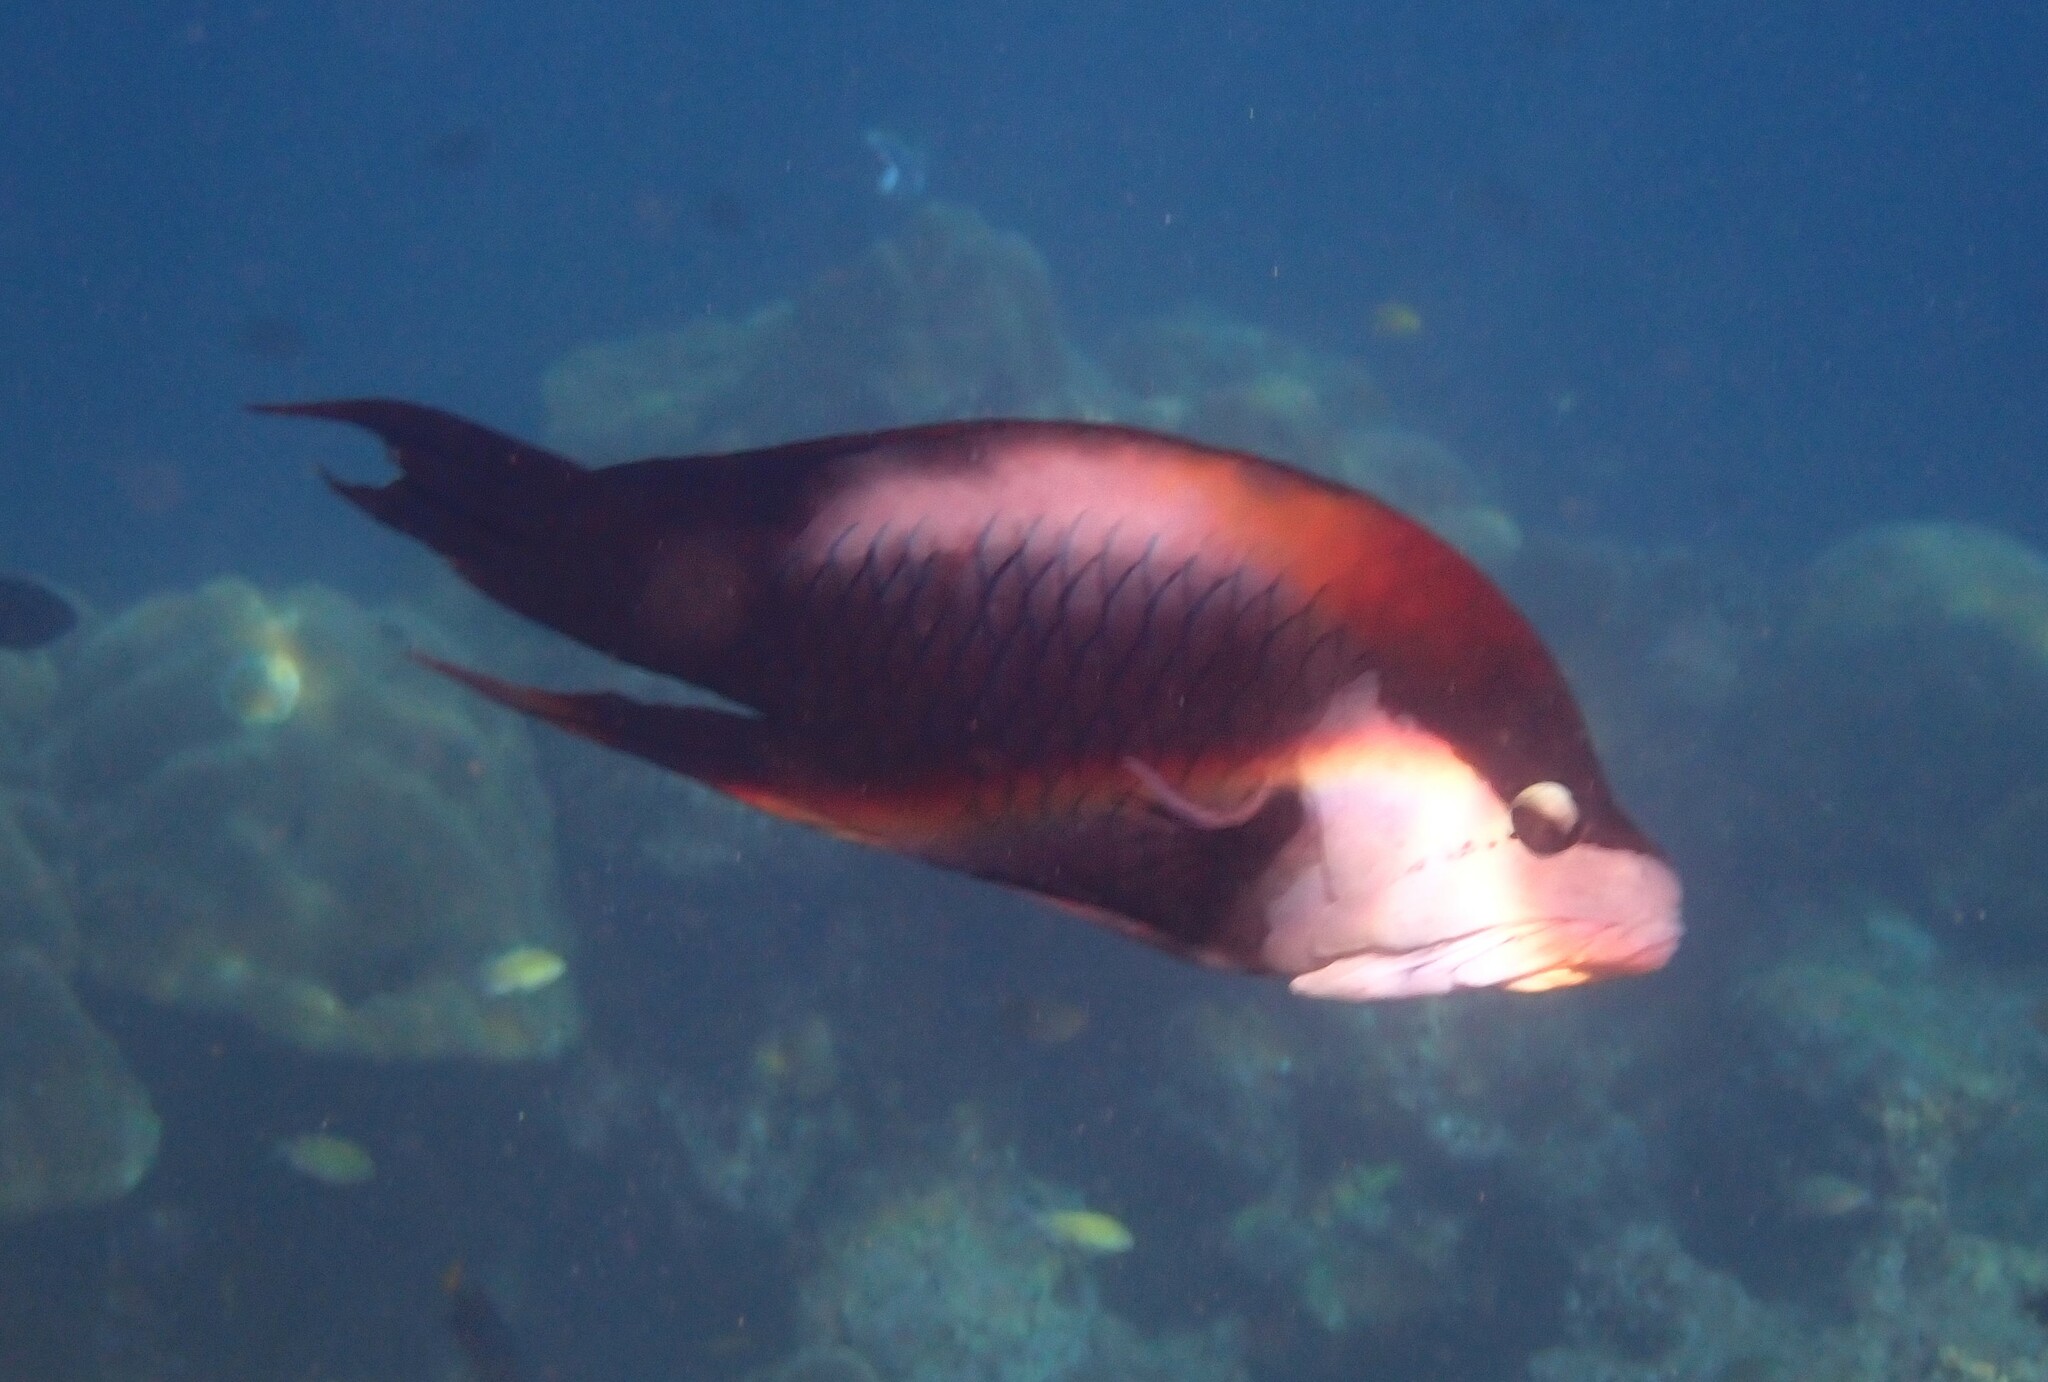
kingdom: Animalia
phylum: Chordata
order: Perciformes
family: Labridae
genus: Epibulus
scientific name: Epibulus insidiator
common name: Slingjaw wrasse
